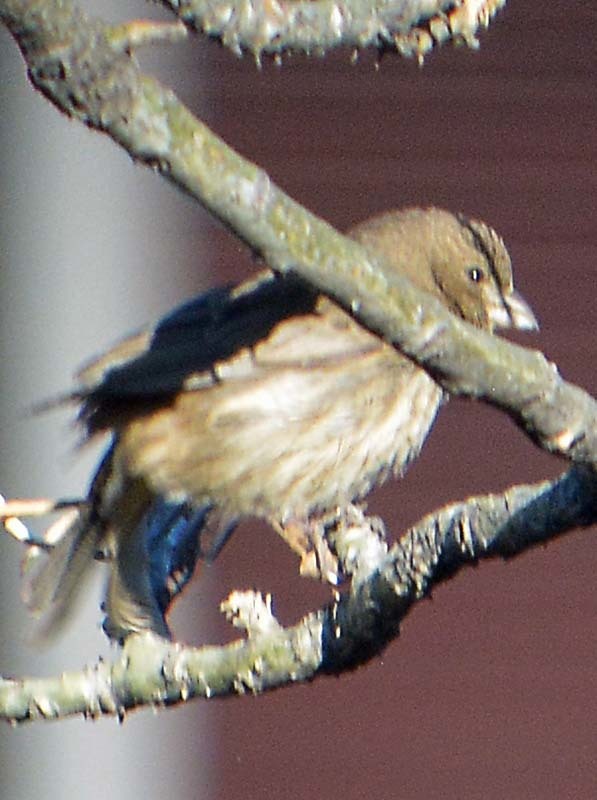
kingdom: Animalia
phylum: Chordata
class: Aves
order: Passeriformes
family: Fringillidae
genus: Haemorhous
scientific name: Haemorhous mexicanus
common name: House finch
